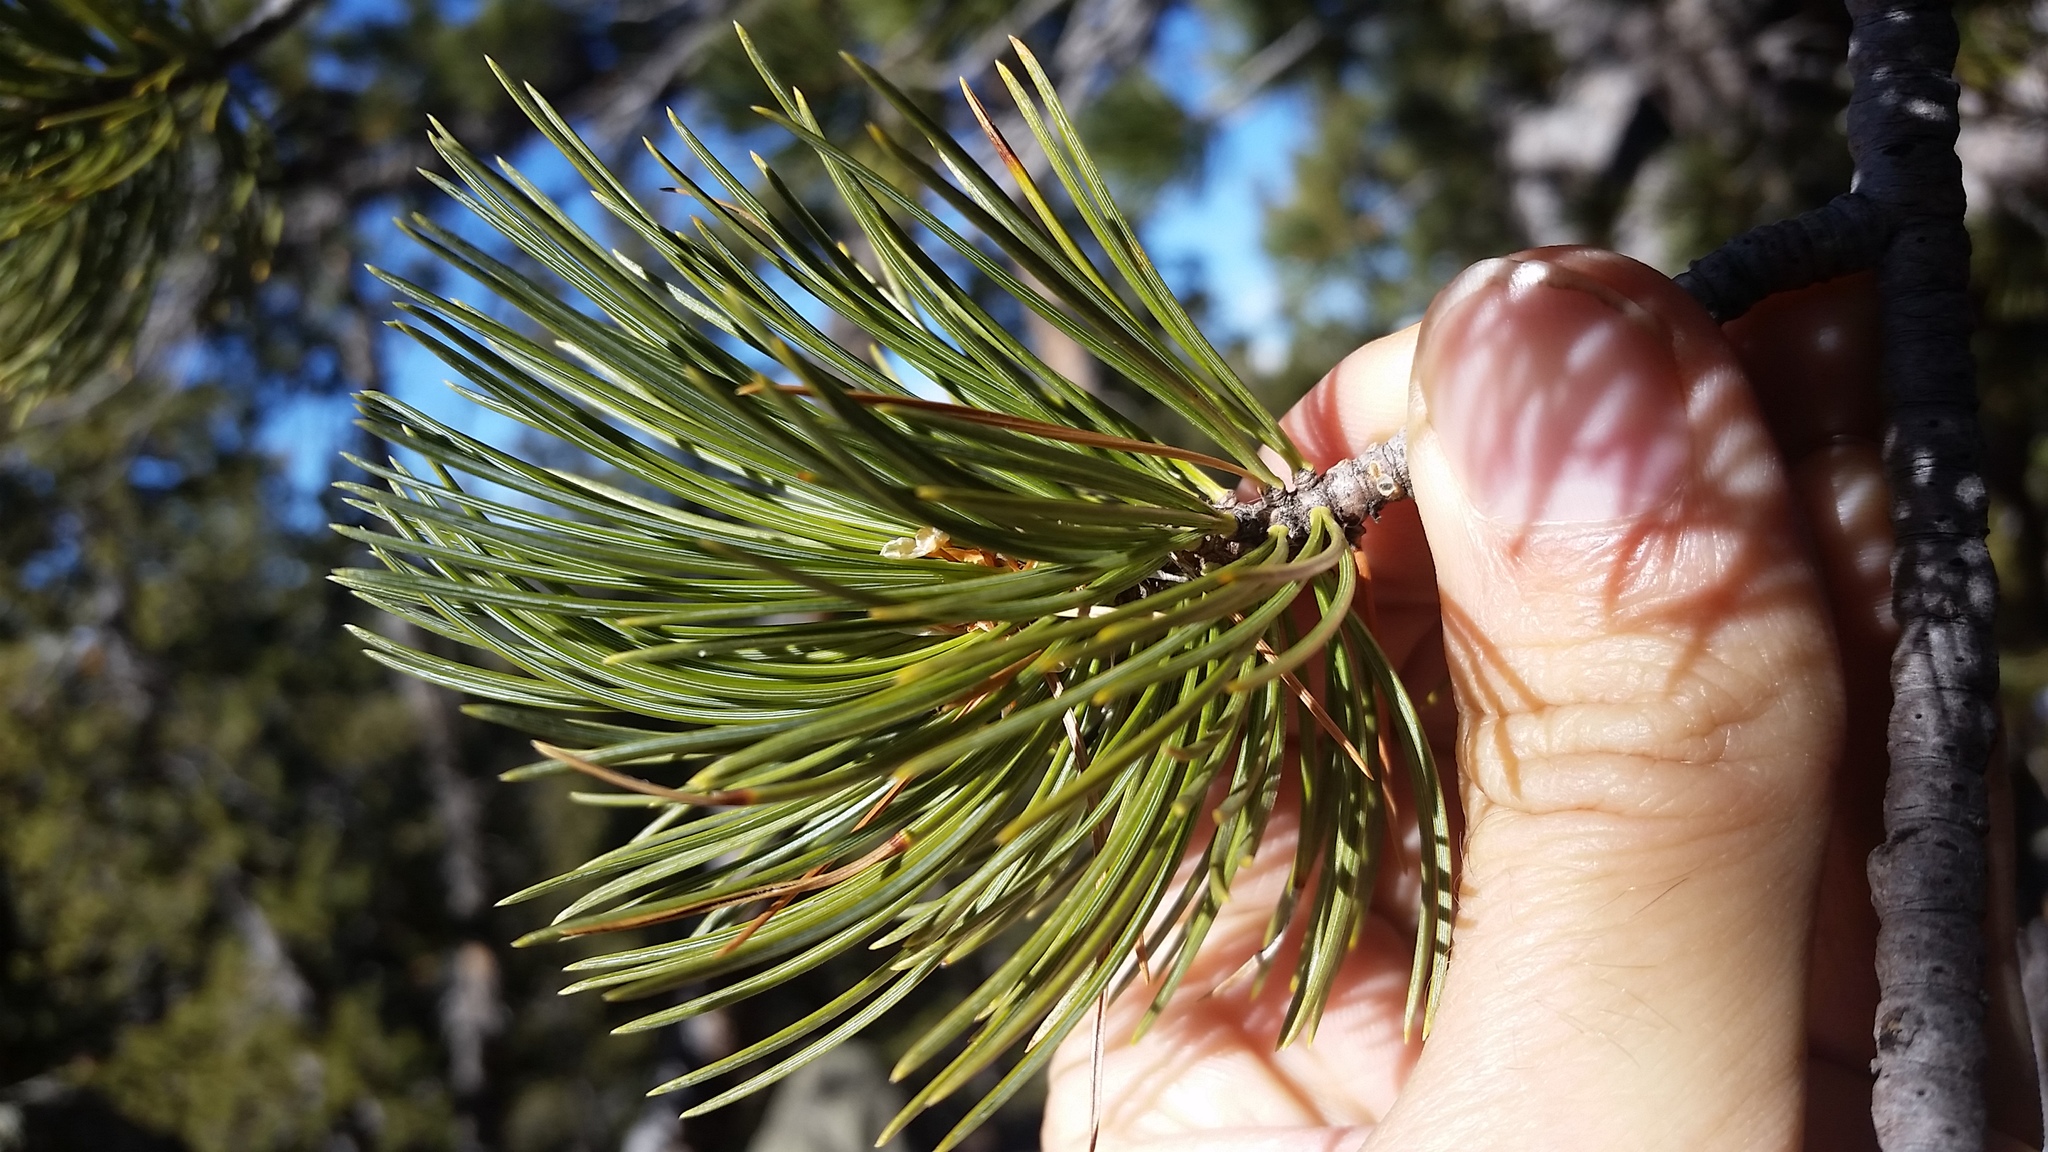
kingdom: Plantae
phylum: Tracheophyta
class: Pinopsida
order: Pinales
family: Pinaceae
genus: Pinus
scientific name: Pinus flexilis
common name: Limber pine
